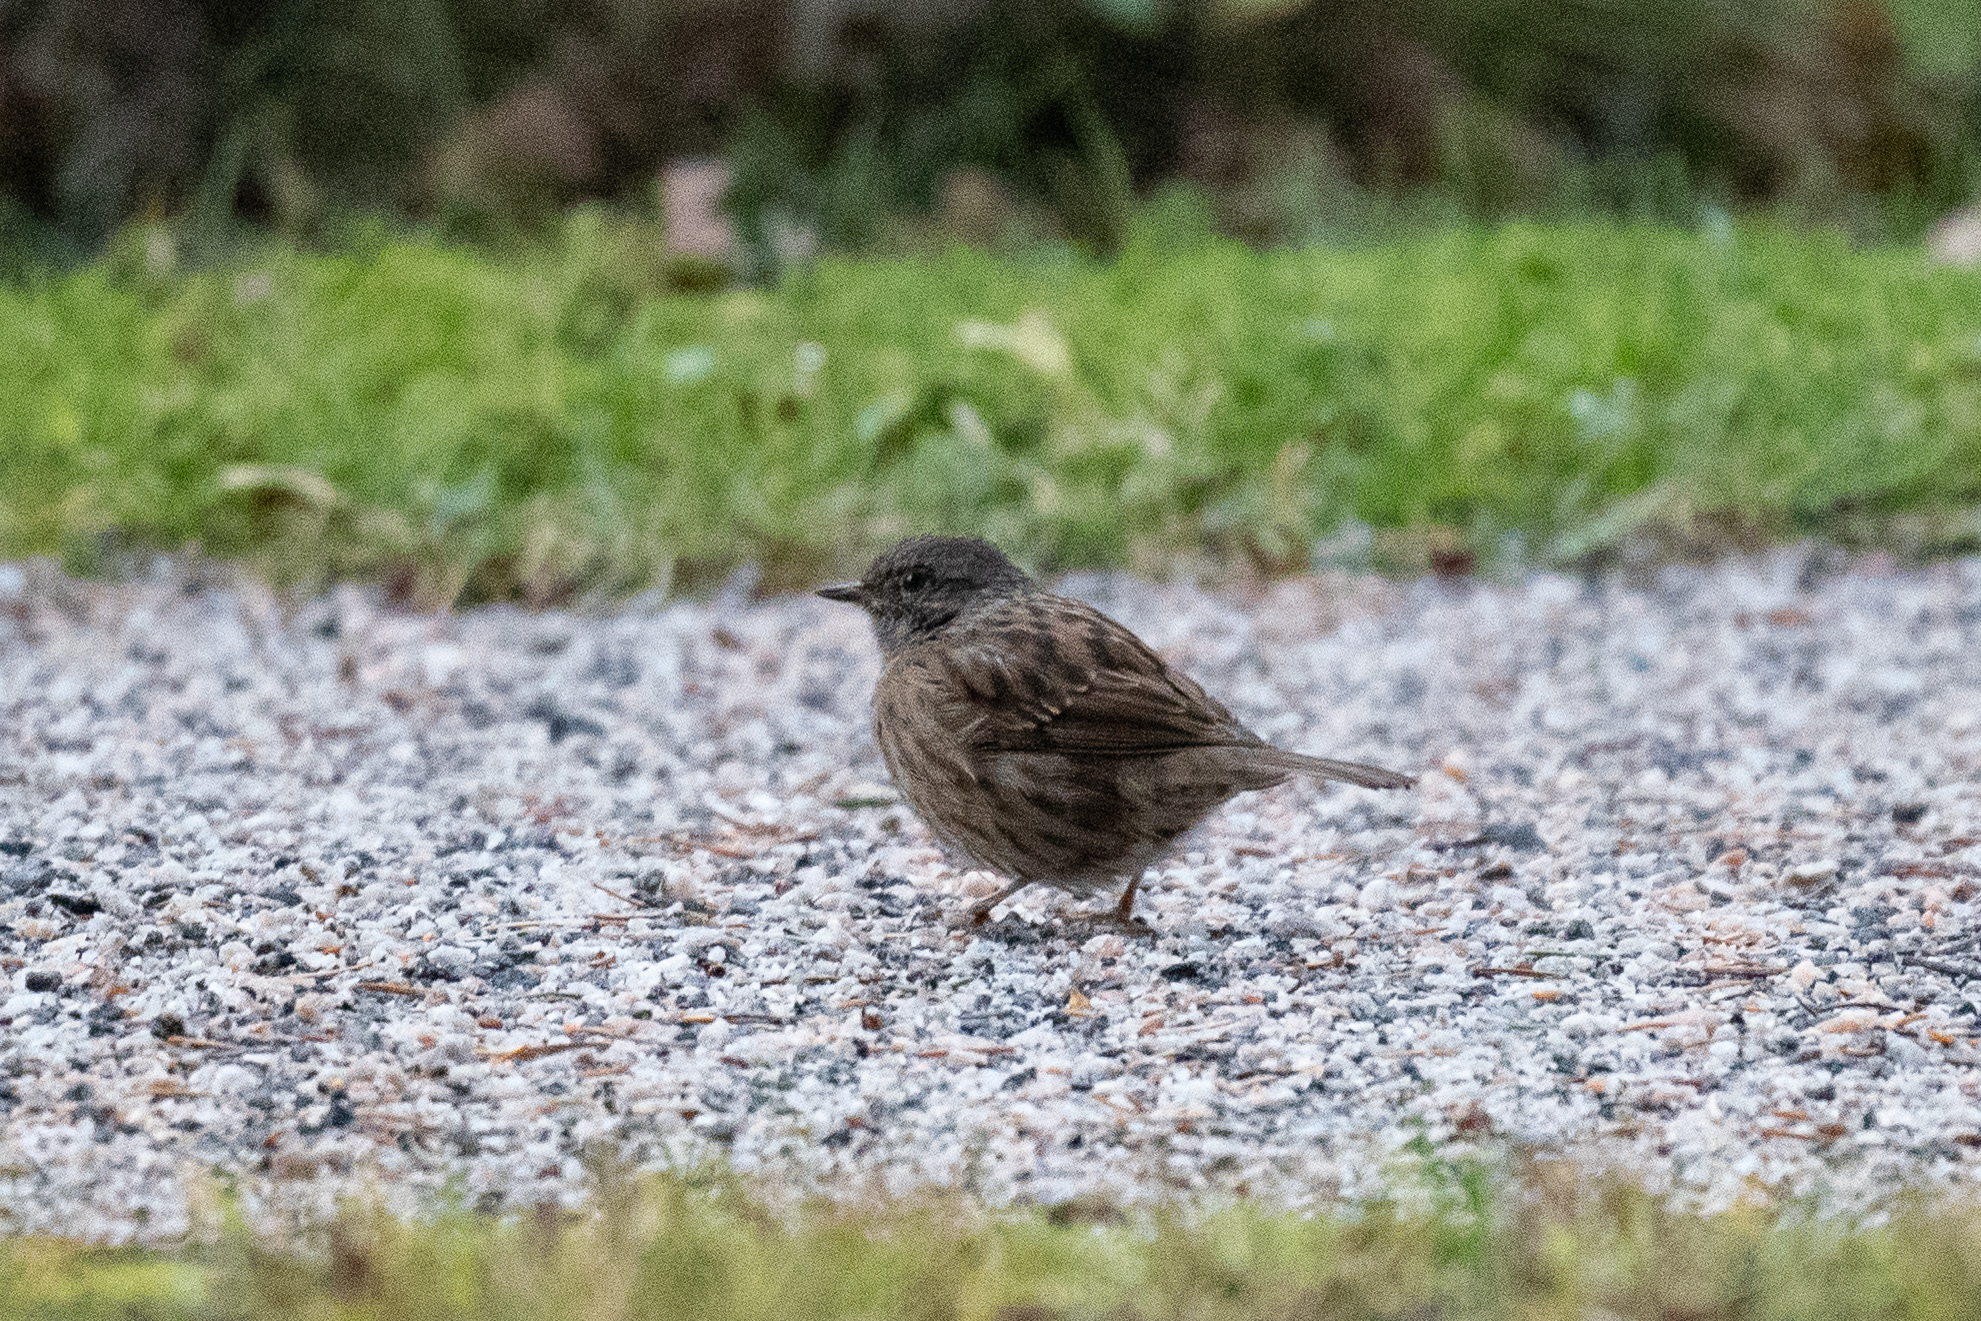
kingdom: Animalia
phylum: Chordata
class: Aves
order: Passeriformes
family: Prunellidae
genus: Prunella
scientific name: Prunella modularis
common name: Dunnock
